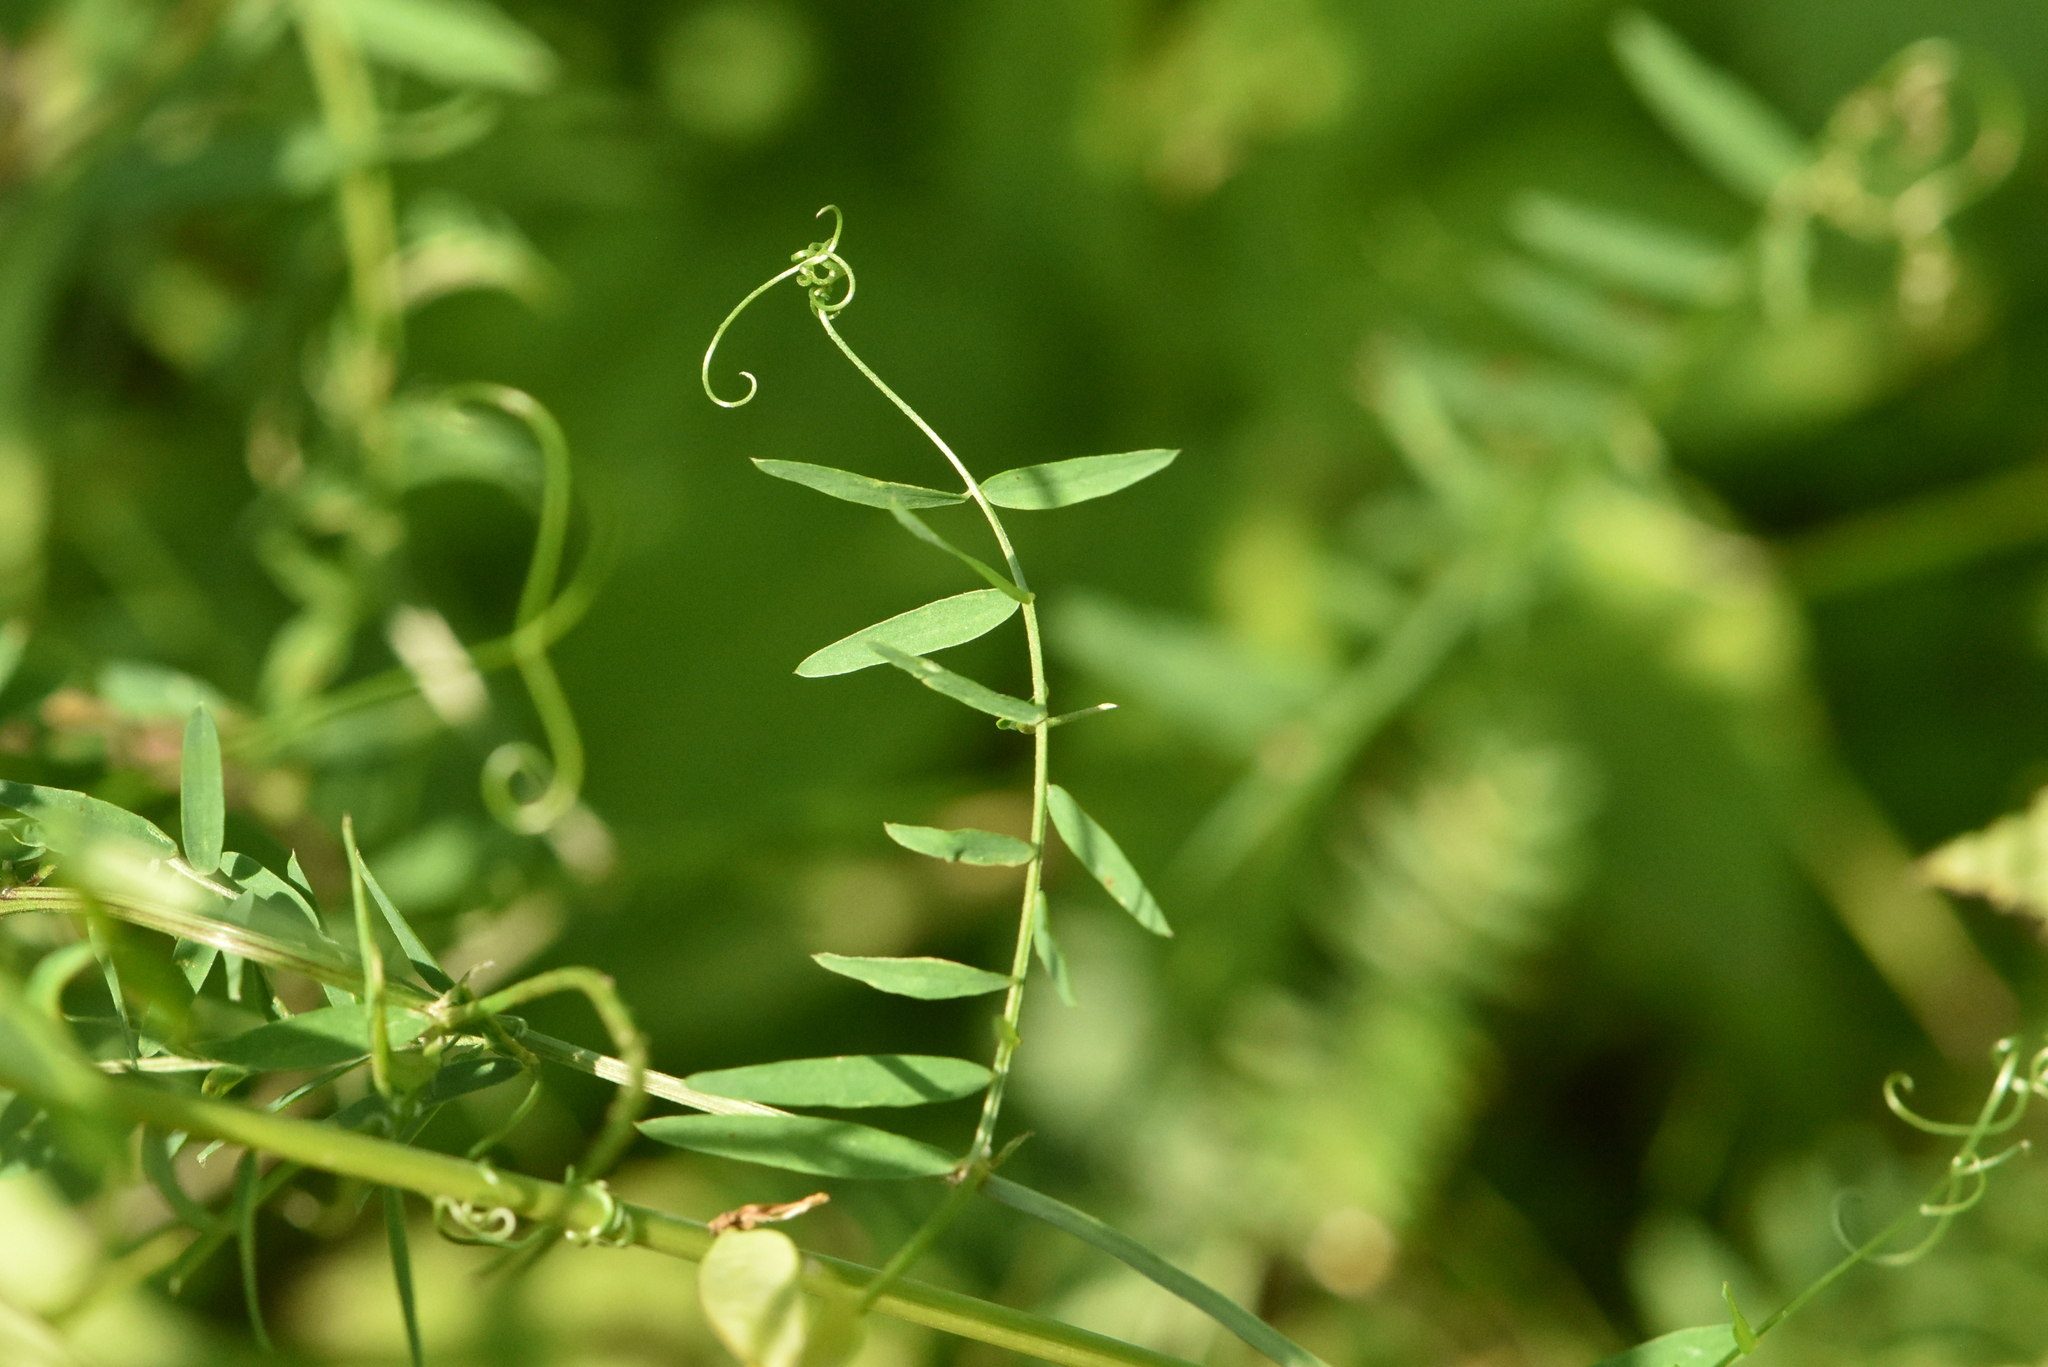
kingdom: Plantae
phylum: Tracheophyta
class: Magnoliopsida
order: Fabales
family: Fabaceae
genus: Vicia
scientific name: Vicia cracca
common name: Bird vetch
